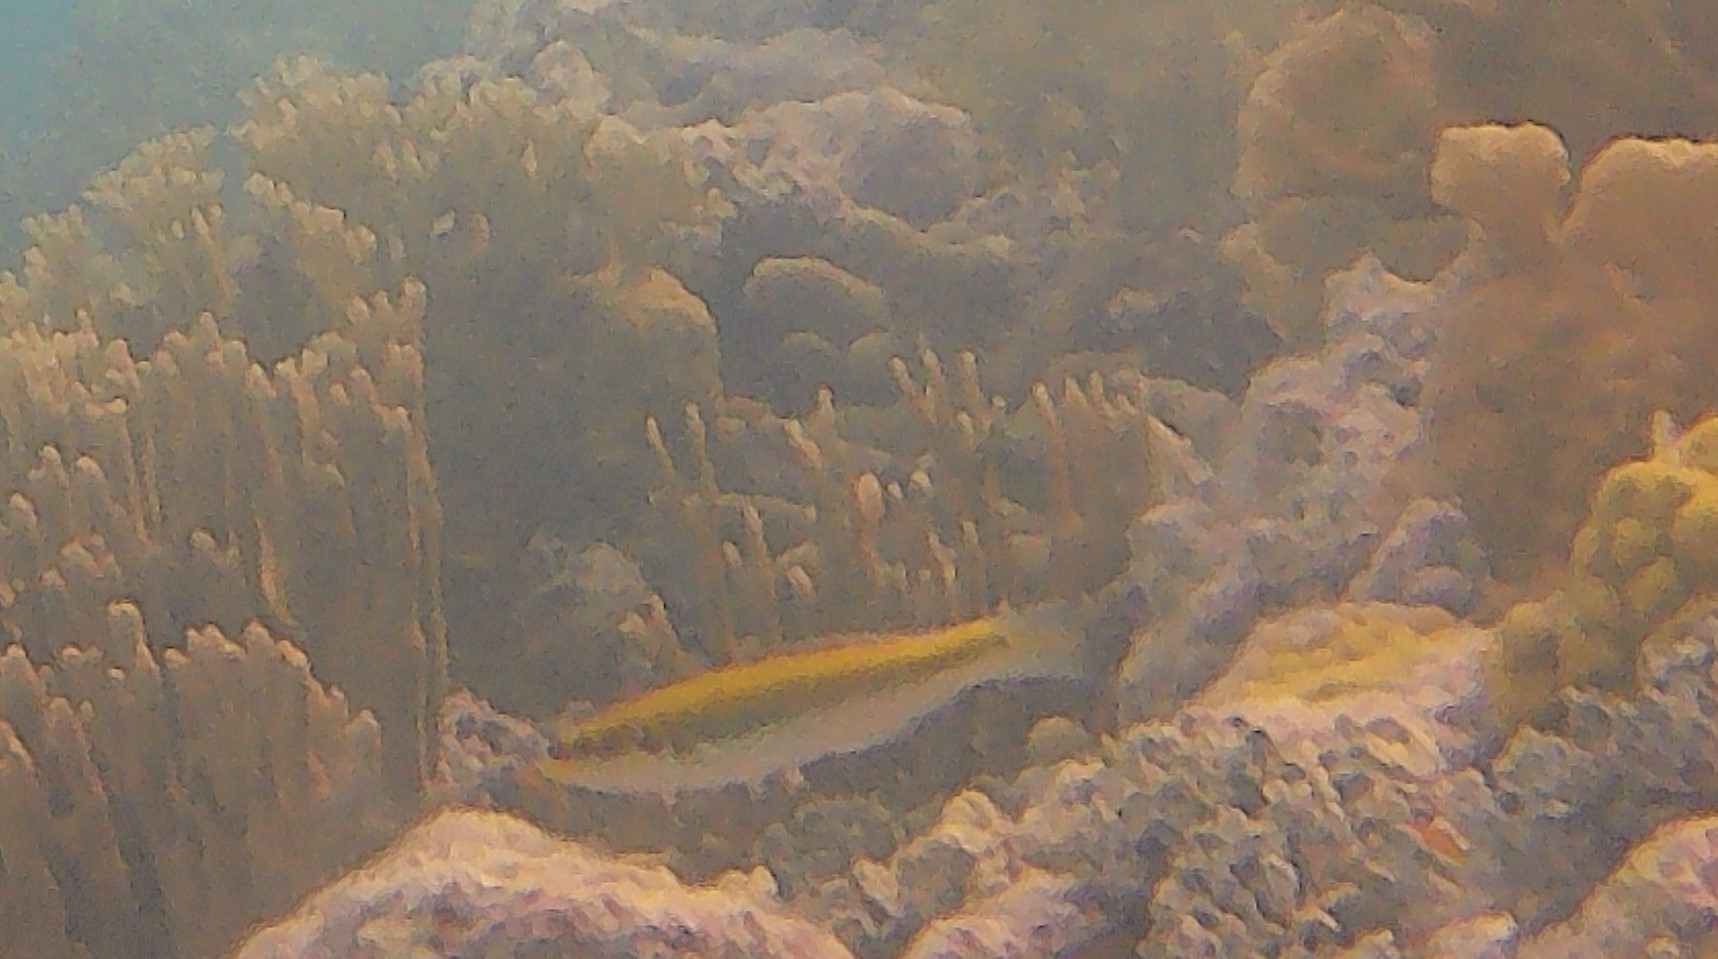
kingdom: Animalia
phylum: Chordata
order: Perciformes
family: Labridae
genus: Thalassoma
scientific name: Thalassoma bifasciatum
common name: Bluehead wrasse
